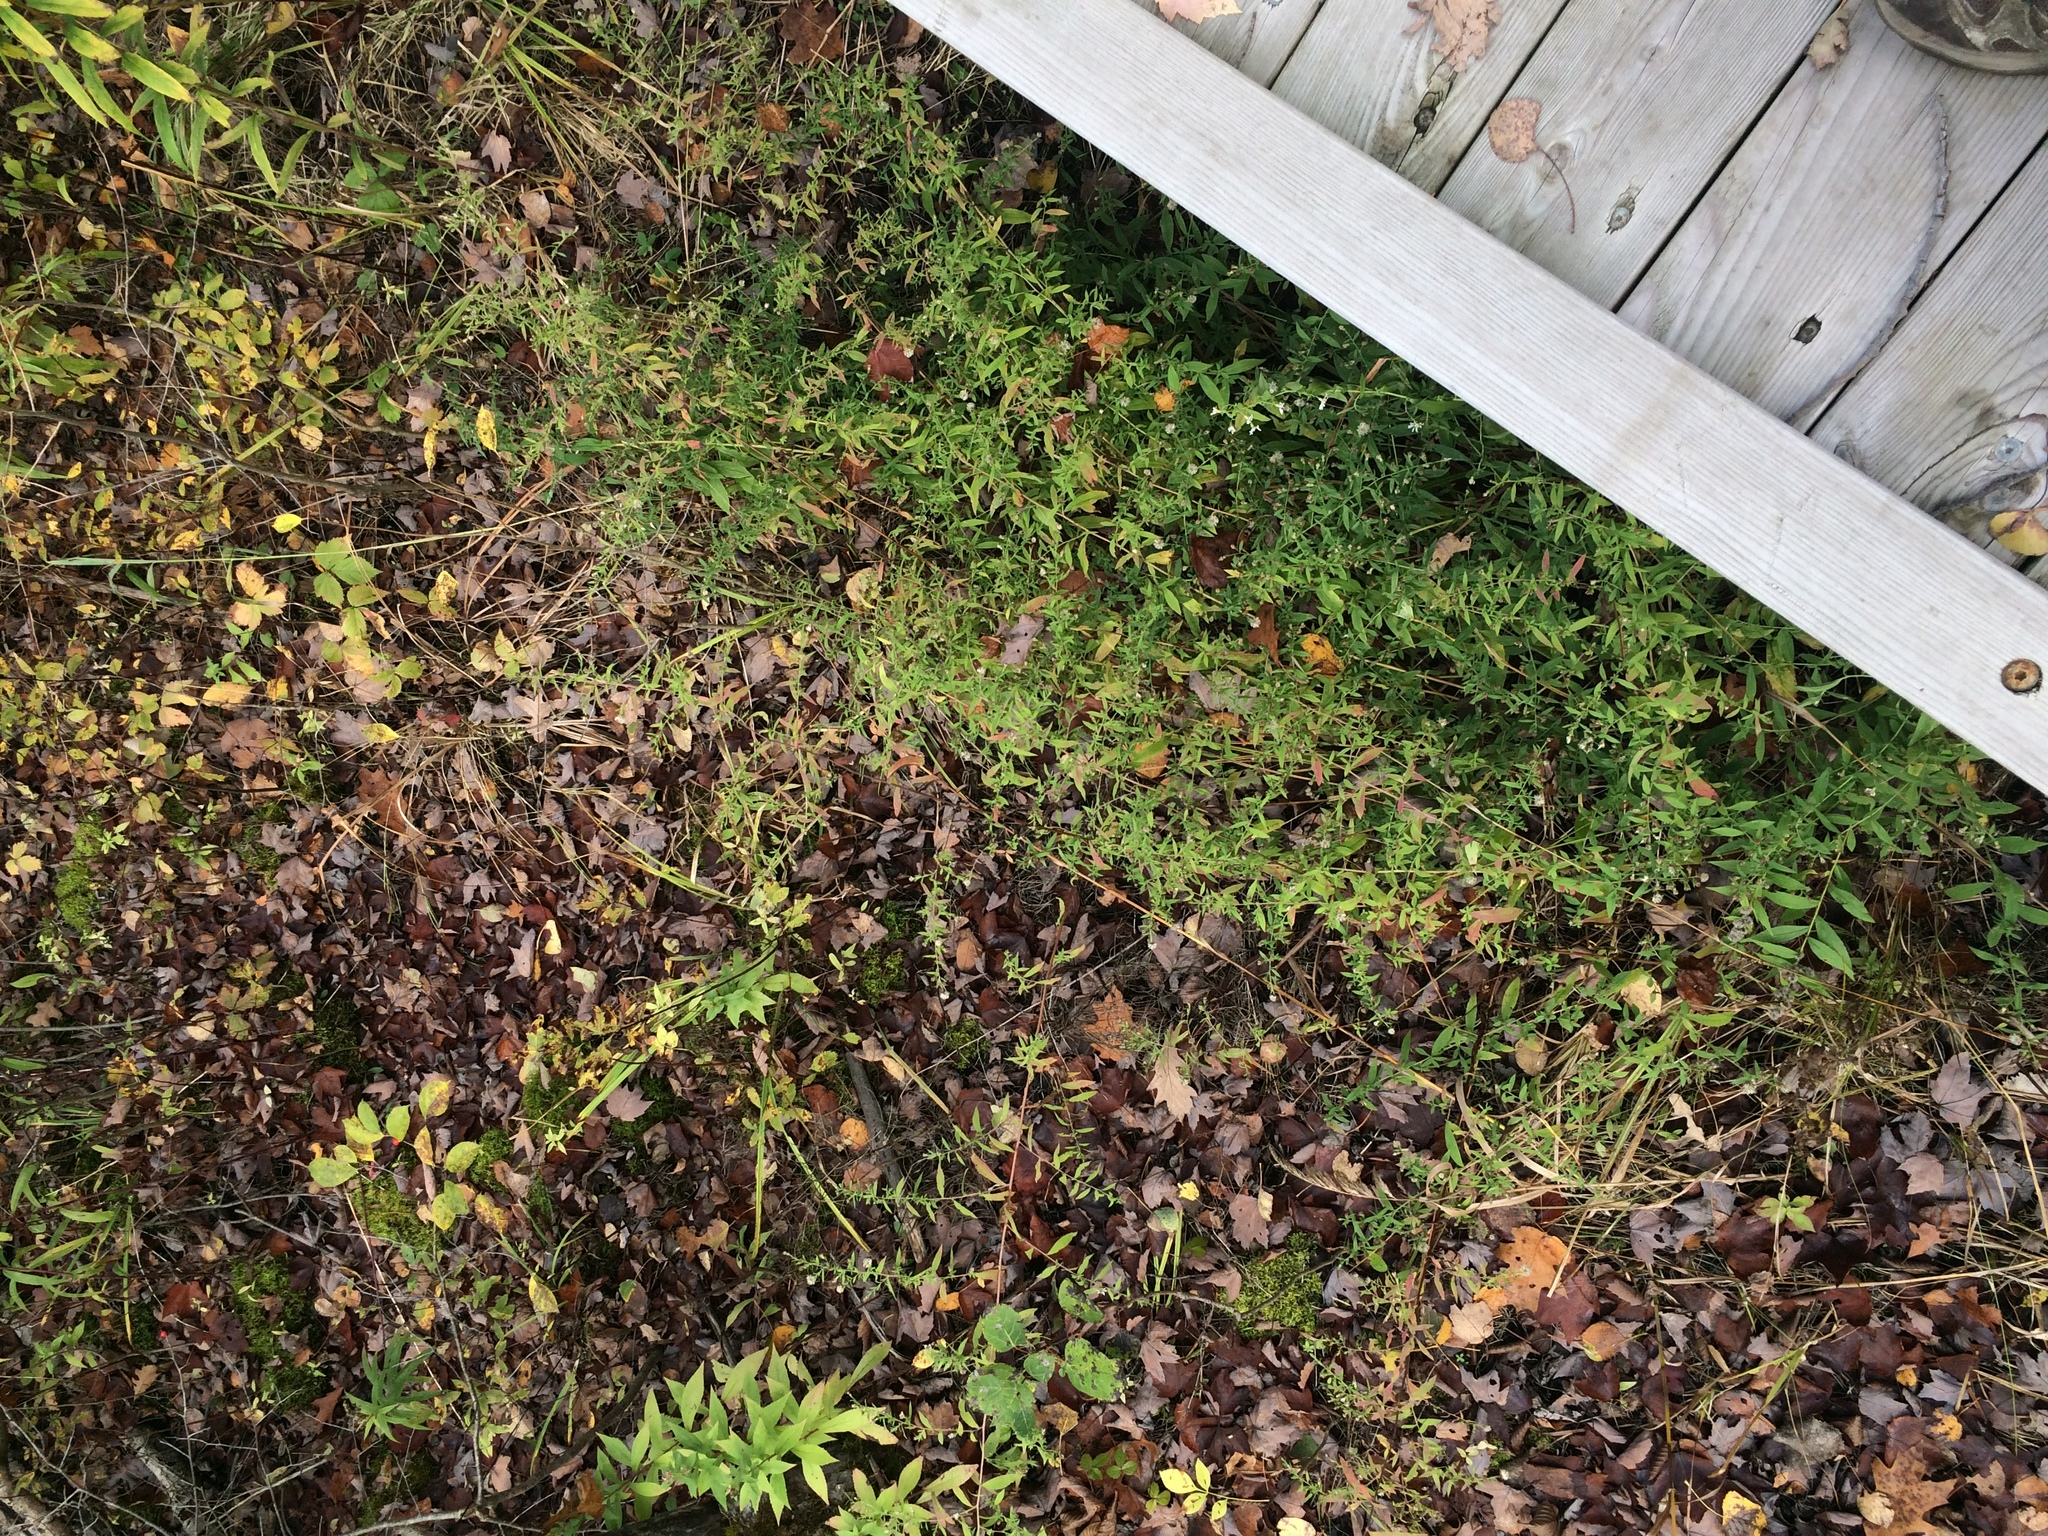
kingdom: Plantae
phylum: Tracheophyta
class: Magnoliopsida
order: Asterales
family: Asteraceae
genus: Symphyotrichum
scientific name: Symphyotrichum ontarionis
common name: Bottomland aster
